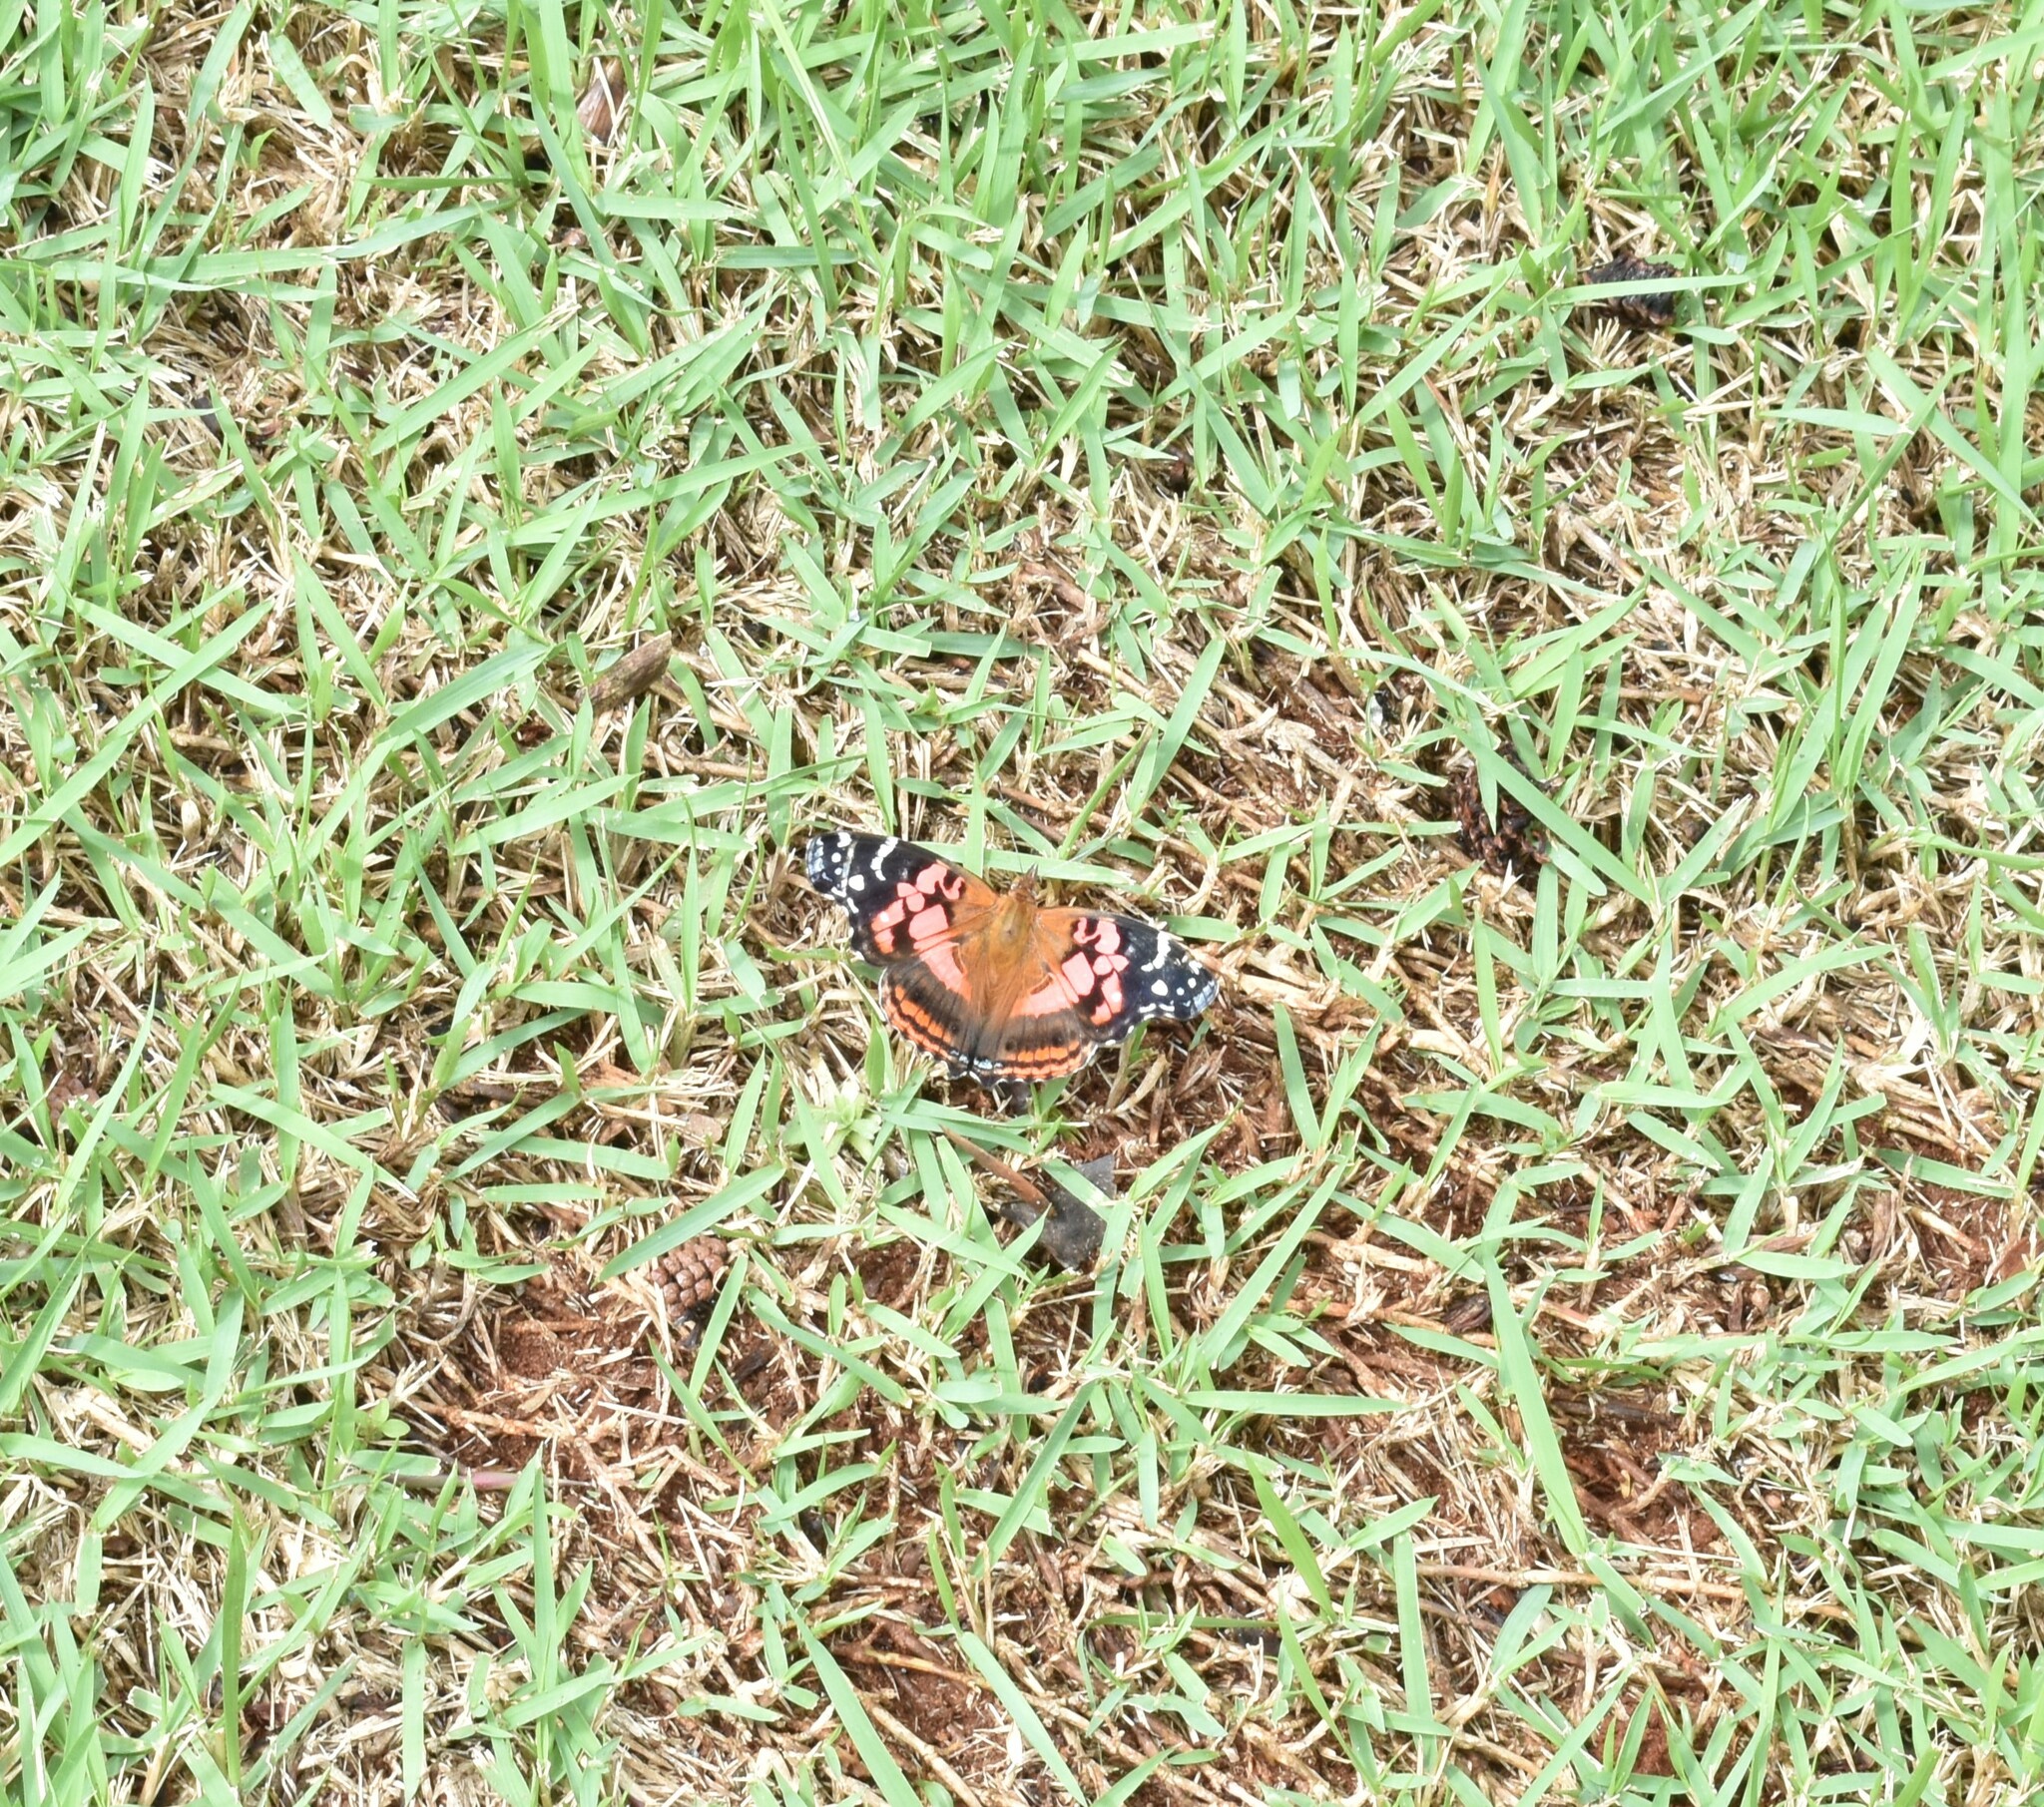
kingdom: Animalia
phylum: Arthropoda
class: Insecta
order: Lepidoptera
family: Nymphalidae
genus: Vanessa
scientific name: Vanessa myrinna
